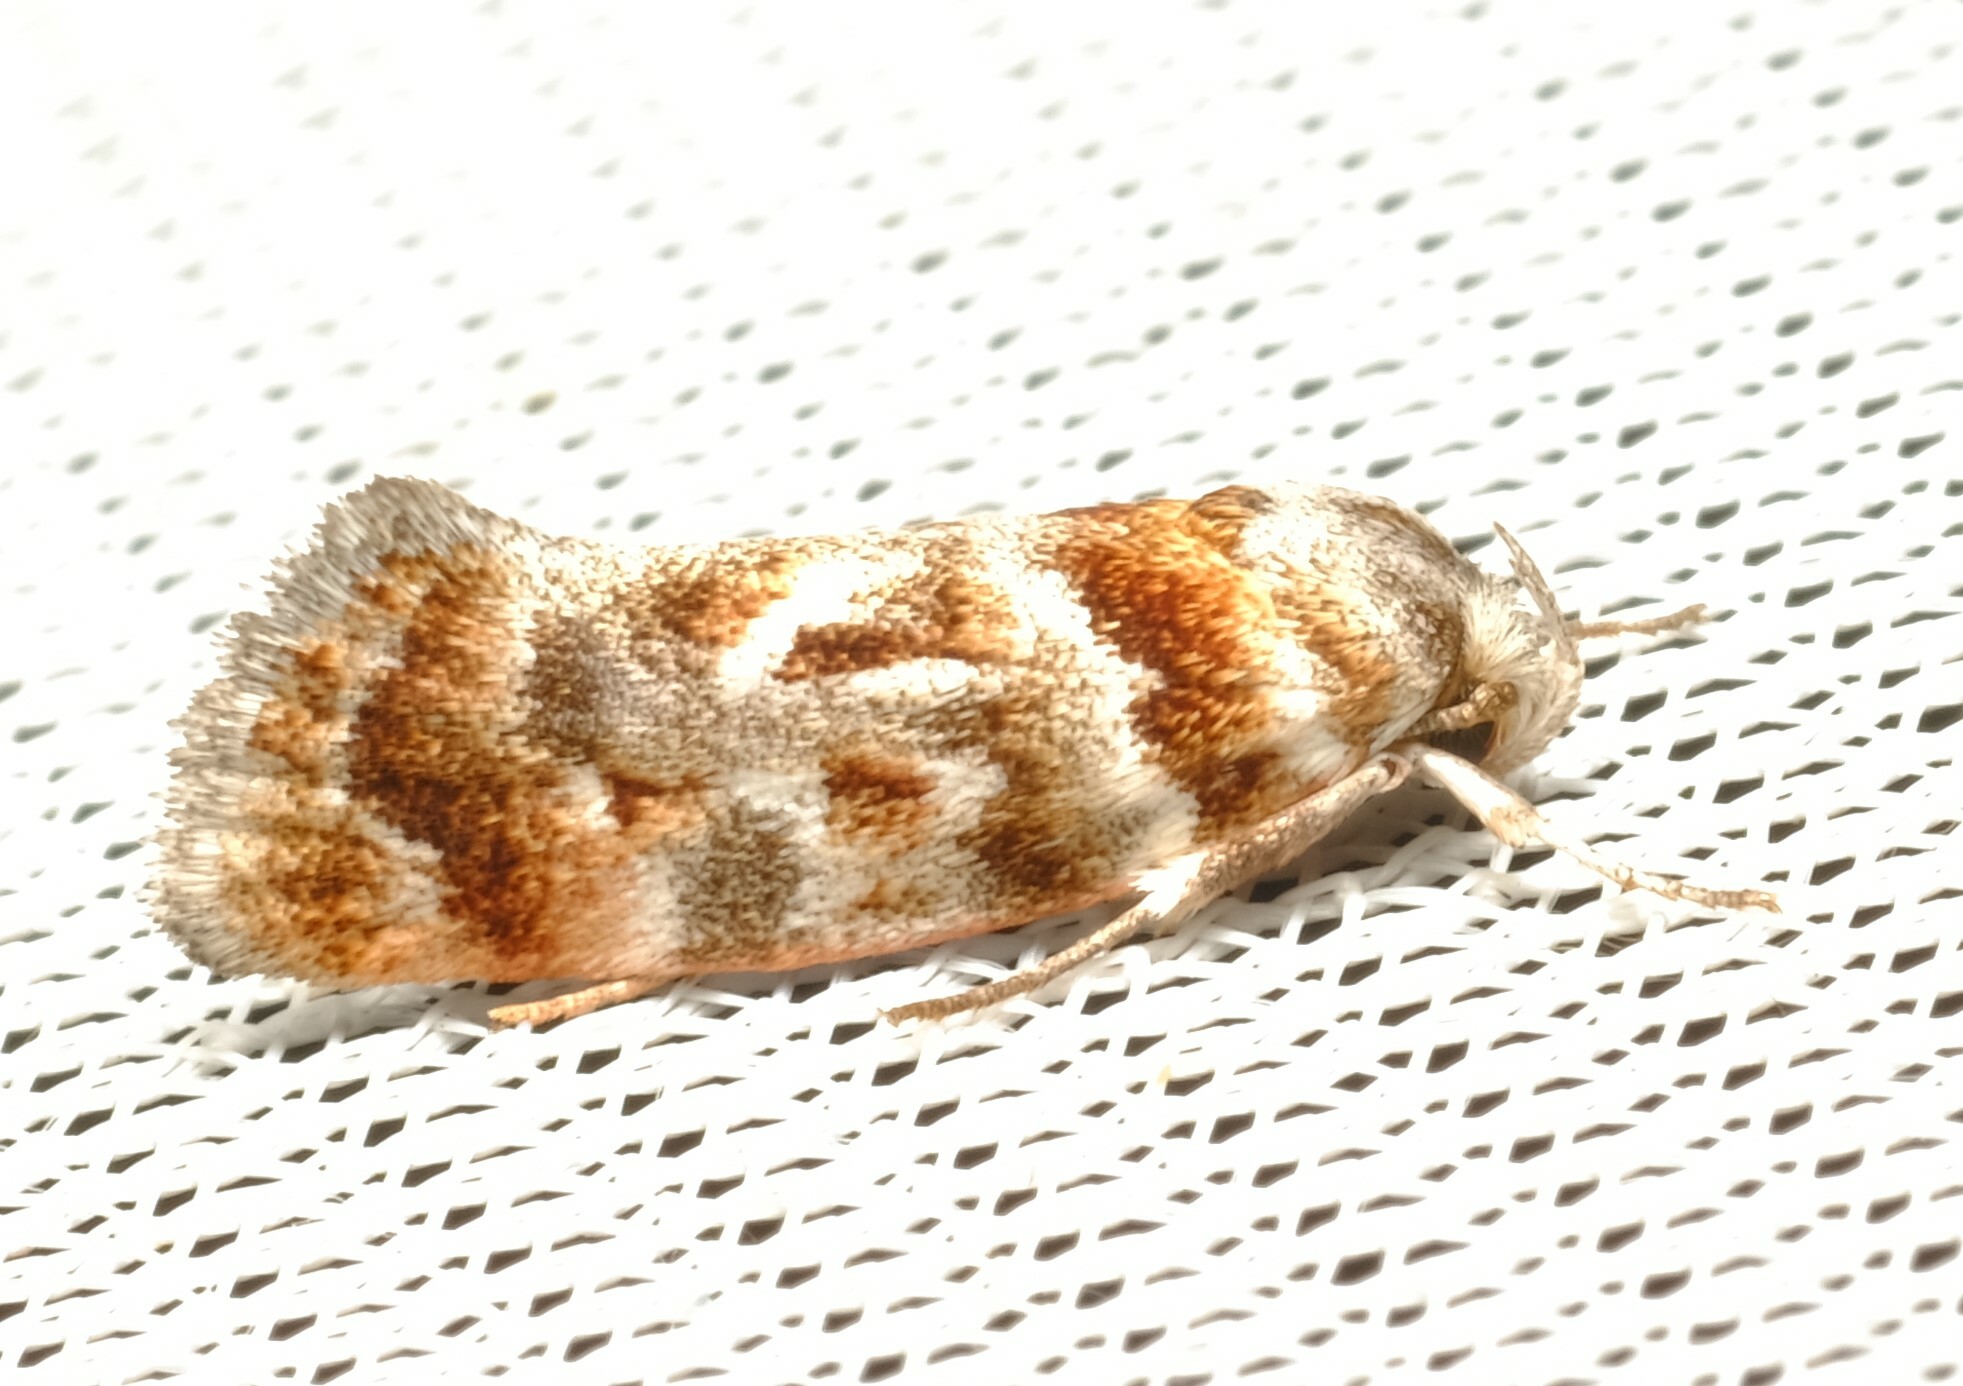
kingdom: Animalia
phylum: Arthropoda
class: Insecta
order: Lepidoptera
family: Oecophoridae
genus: Acmotoma
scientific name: Acmotoma magniferella
